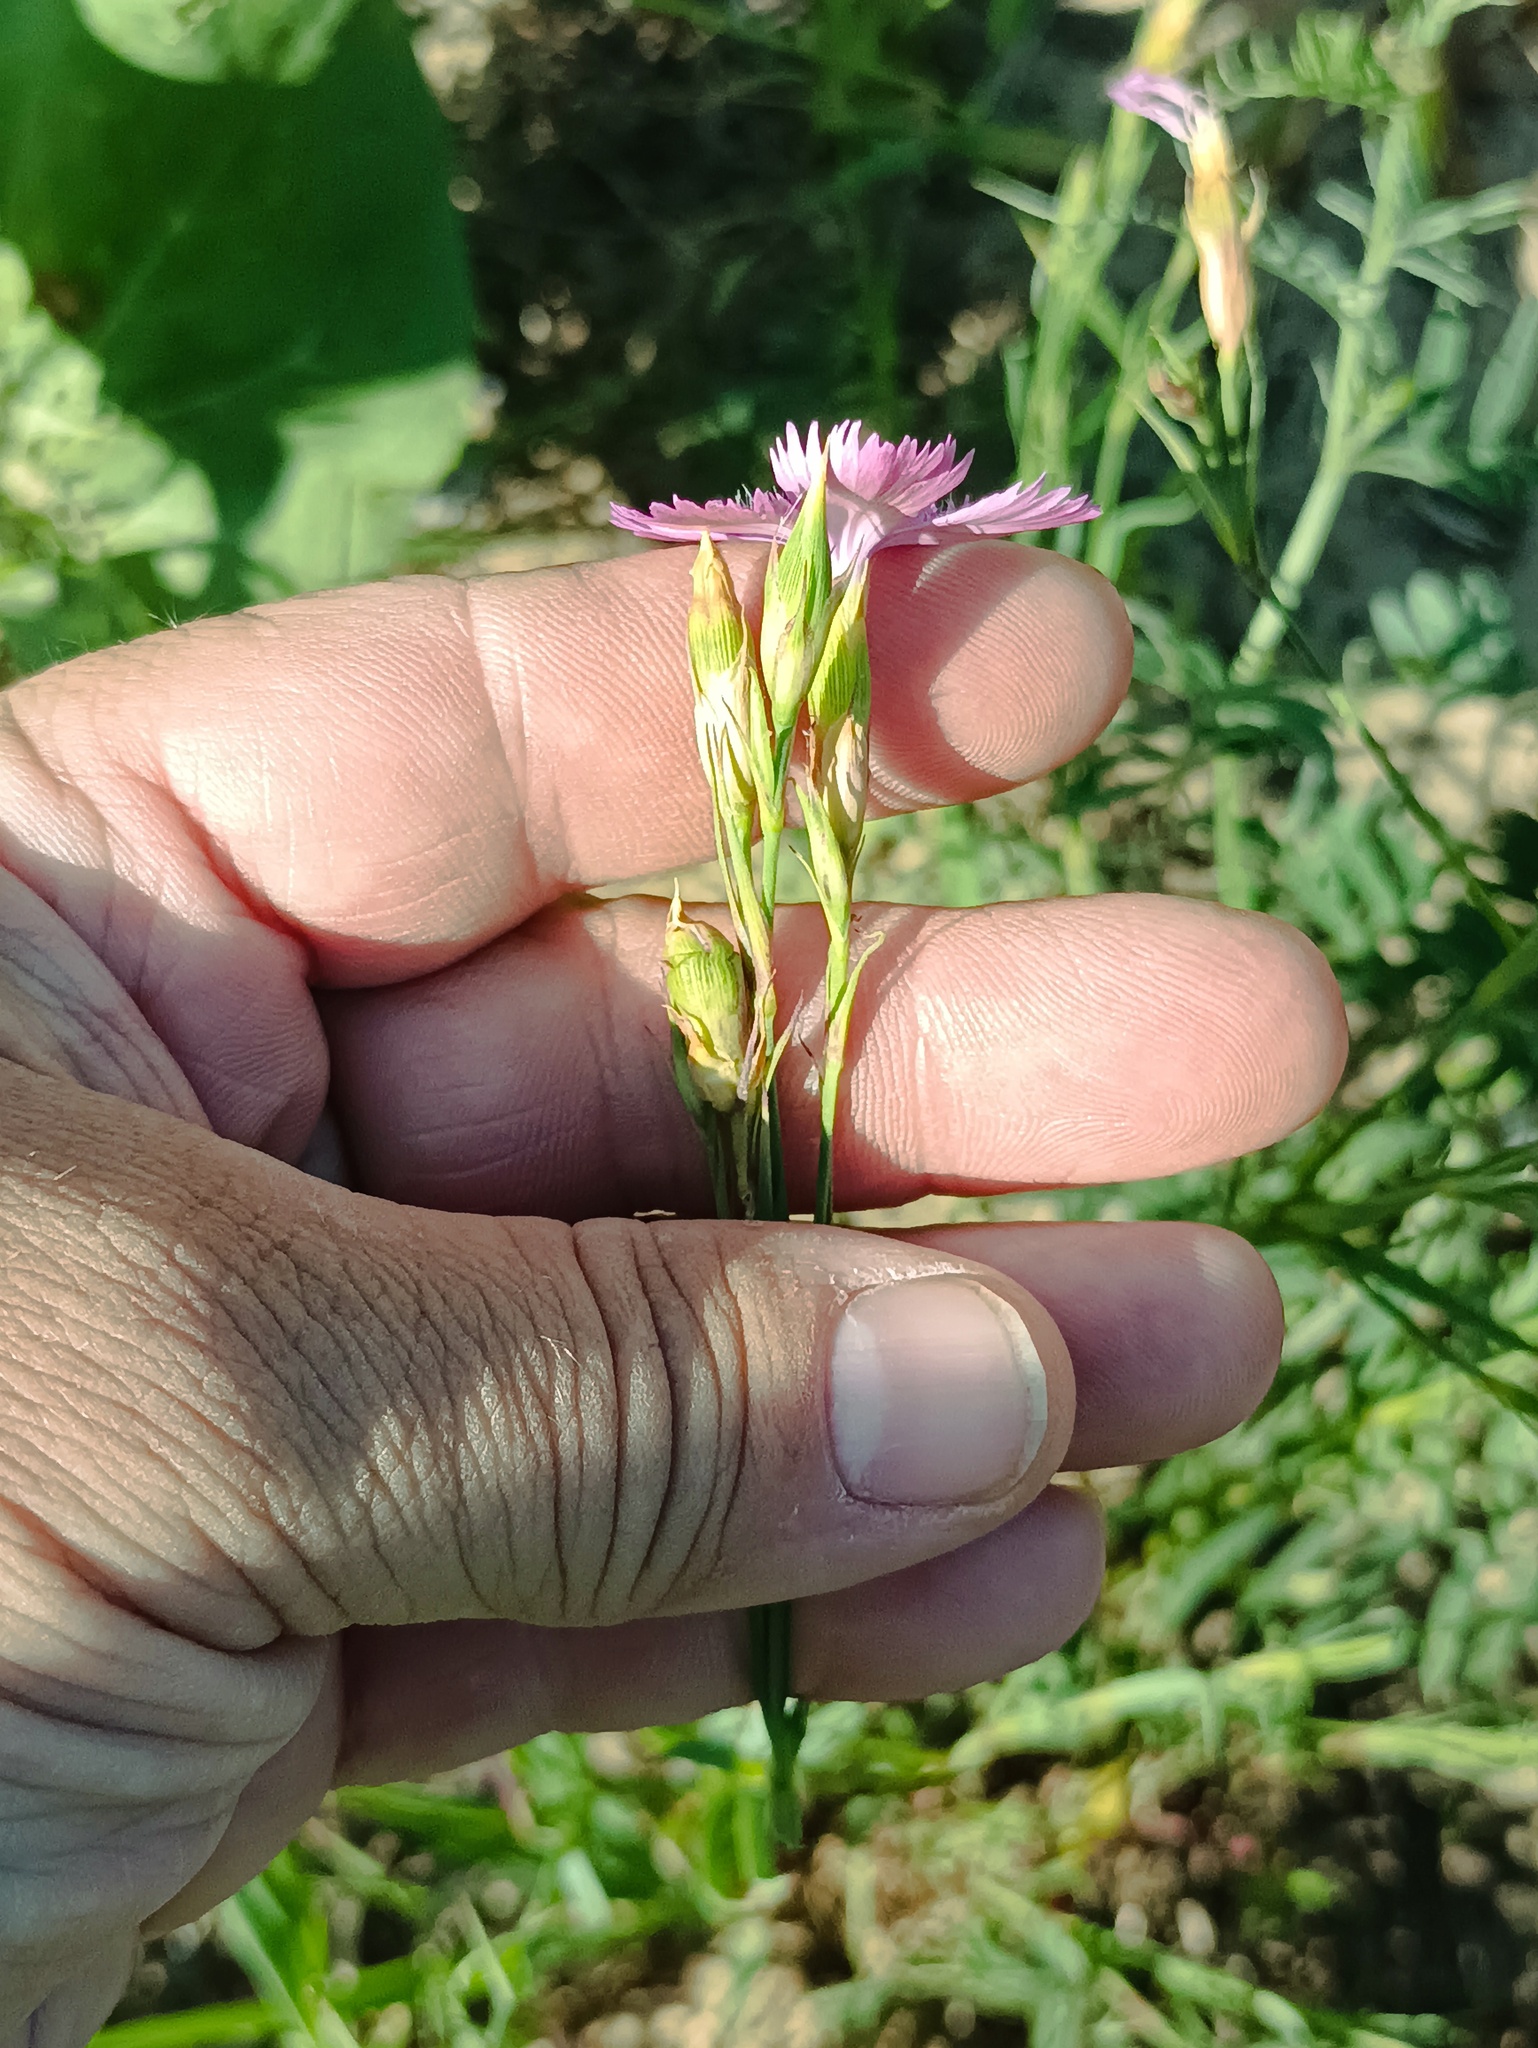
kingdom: Plantae
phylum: Tracheophyta
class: Magnoliopsida
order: Caryophyllales
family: Caryophyllaceae
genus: Dianthus
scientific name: Dianthus chinensis
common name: Rainbow pink
